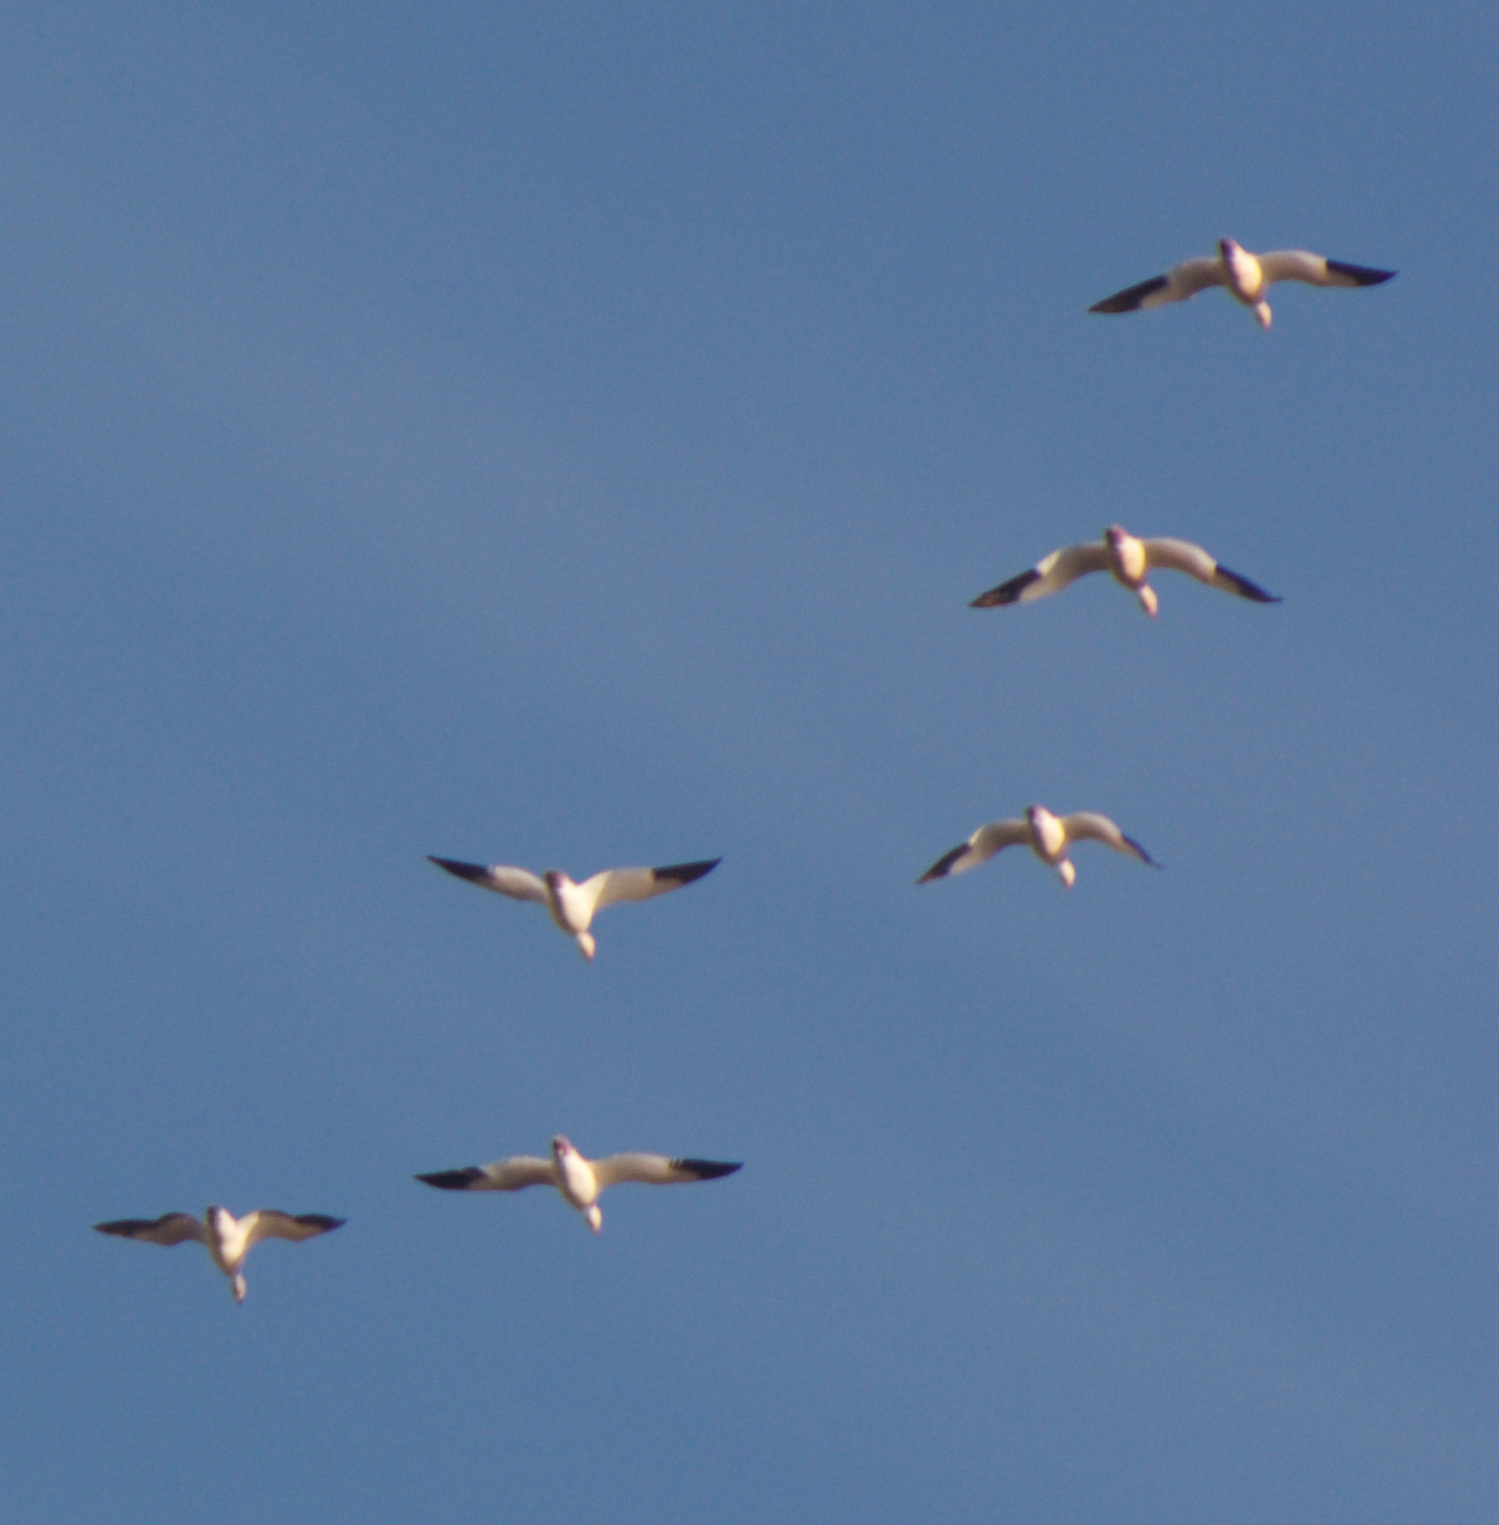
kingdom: Animalia
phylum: Chordata
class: Aves
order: Anseriformes
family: Anatidae
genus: Anser
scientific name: Anser caerulescens
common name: Snow goose
